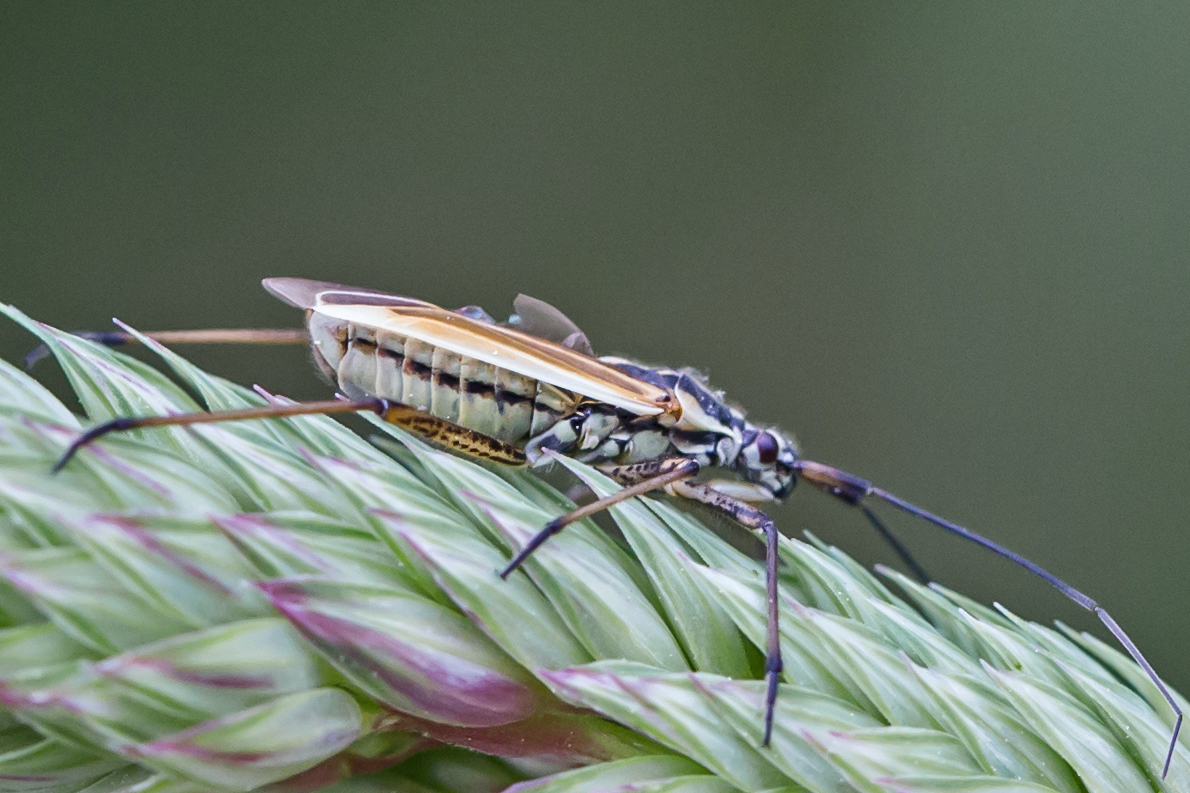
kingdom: Animalia
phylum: Arthropoda
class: Insecta
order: Hemiptera
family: Miridae
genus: Leptopterna
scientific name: Leptopterna dolabrata
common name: Meadow plant bug
